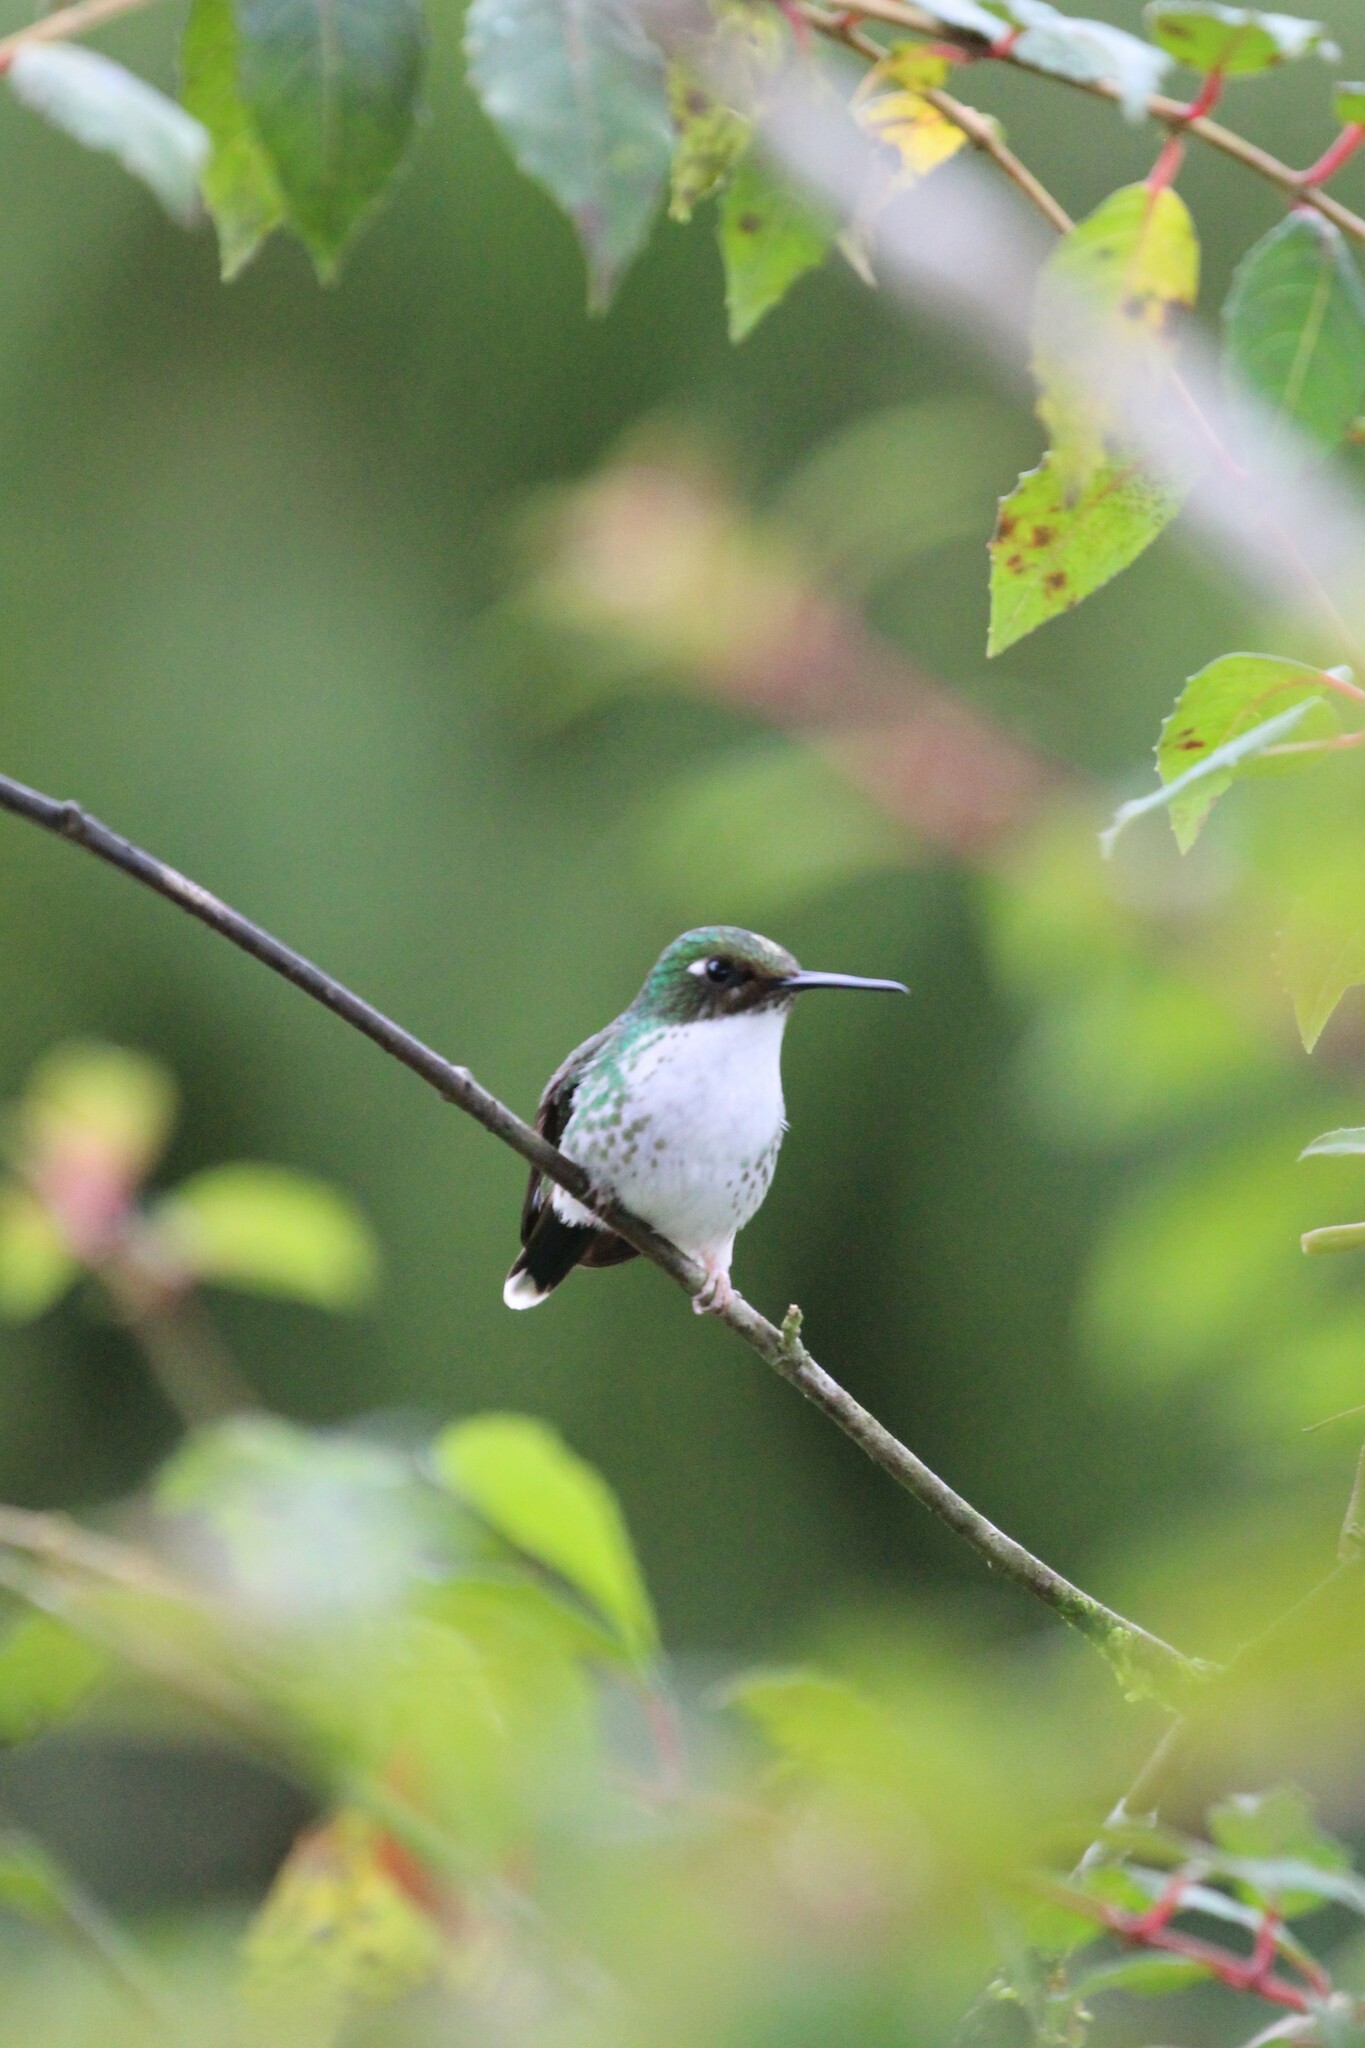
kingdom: Animalia
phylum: Chordata
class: Aves
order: Apodiformes
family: Trochilidae
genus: Ocreatus
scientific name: Ocreatus underwoodii
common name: Booted racket-tail
